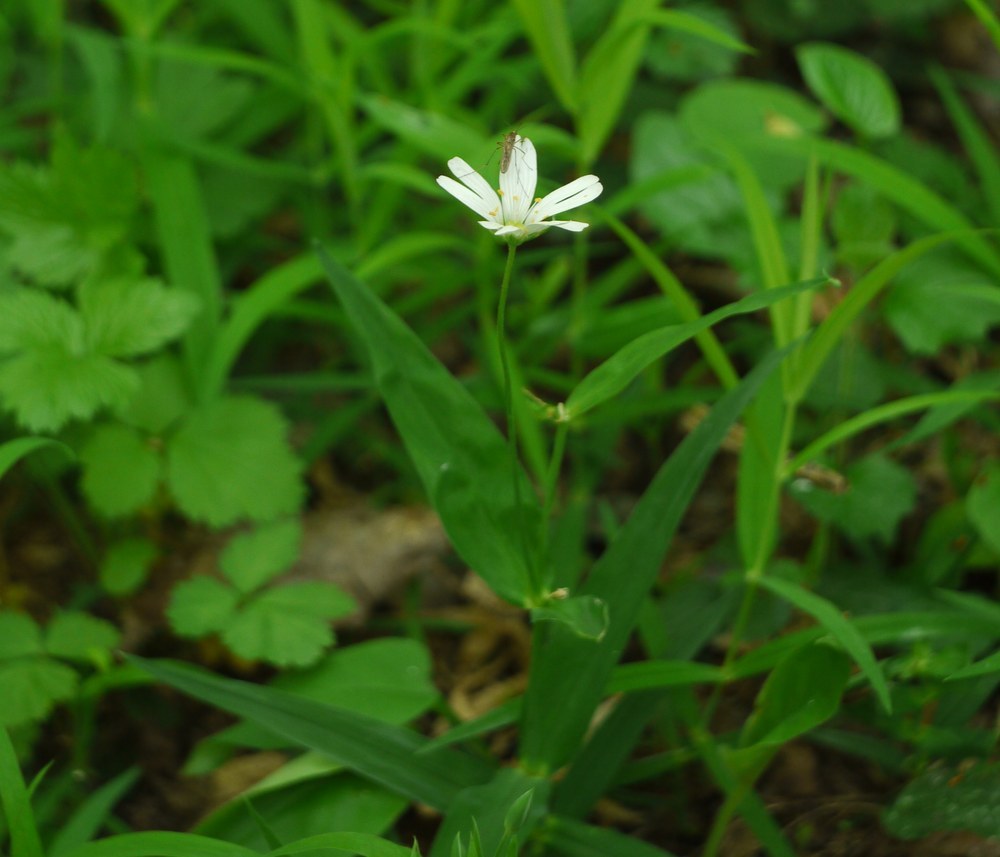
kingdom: Plantae
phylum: Tracheophyta
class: Magnoliopsida
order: Caryophyllales
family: Caryophyllaceae
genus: Rabelera
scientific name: Rabelera holostea
